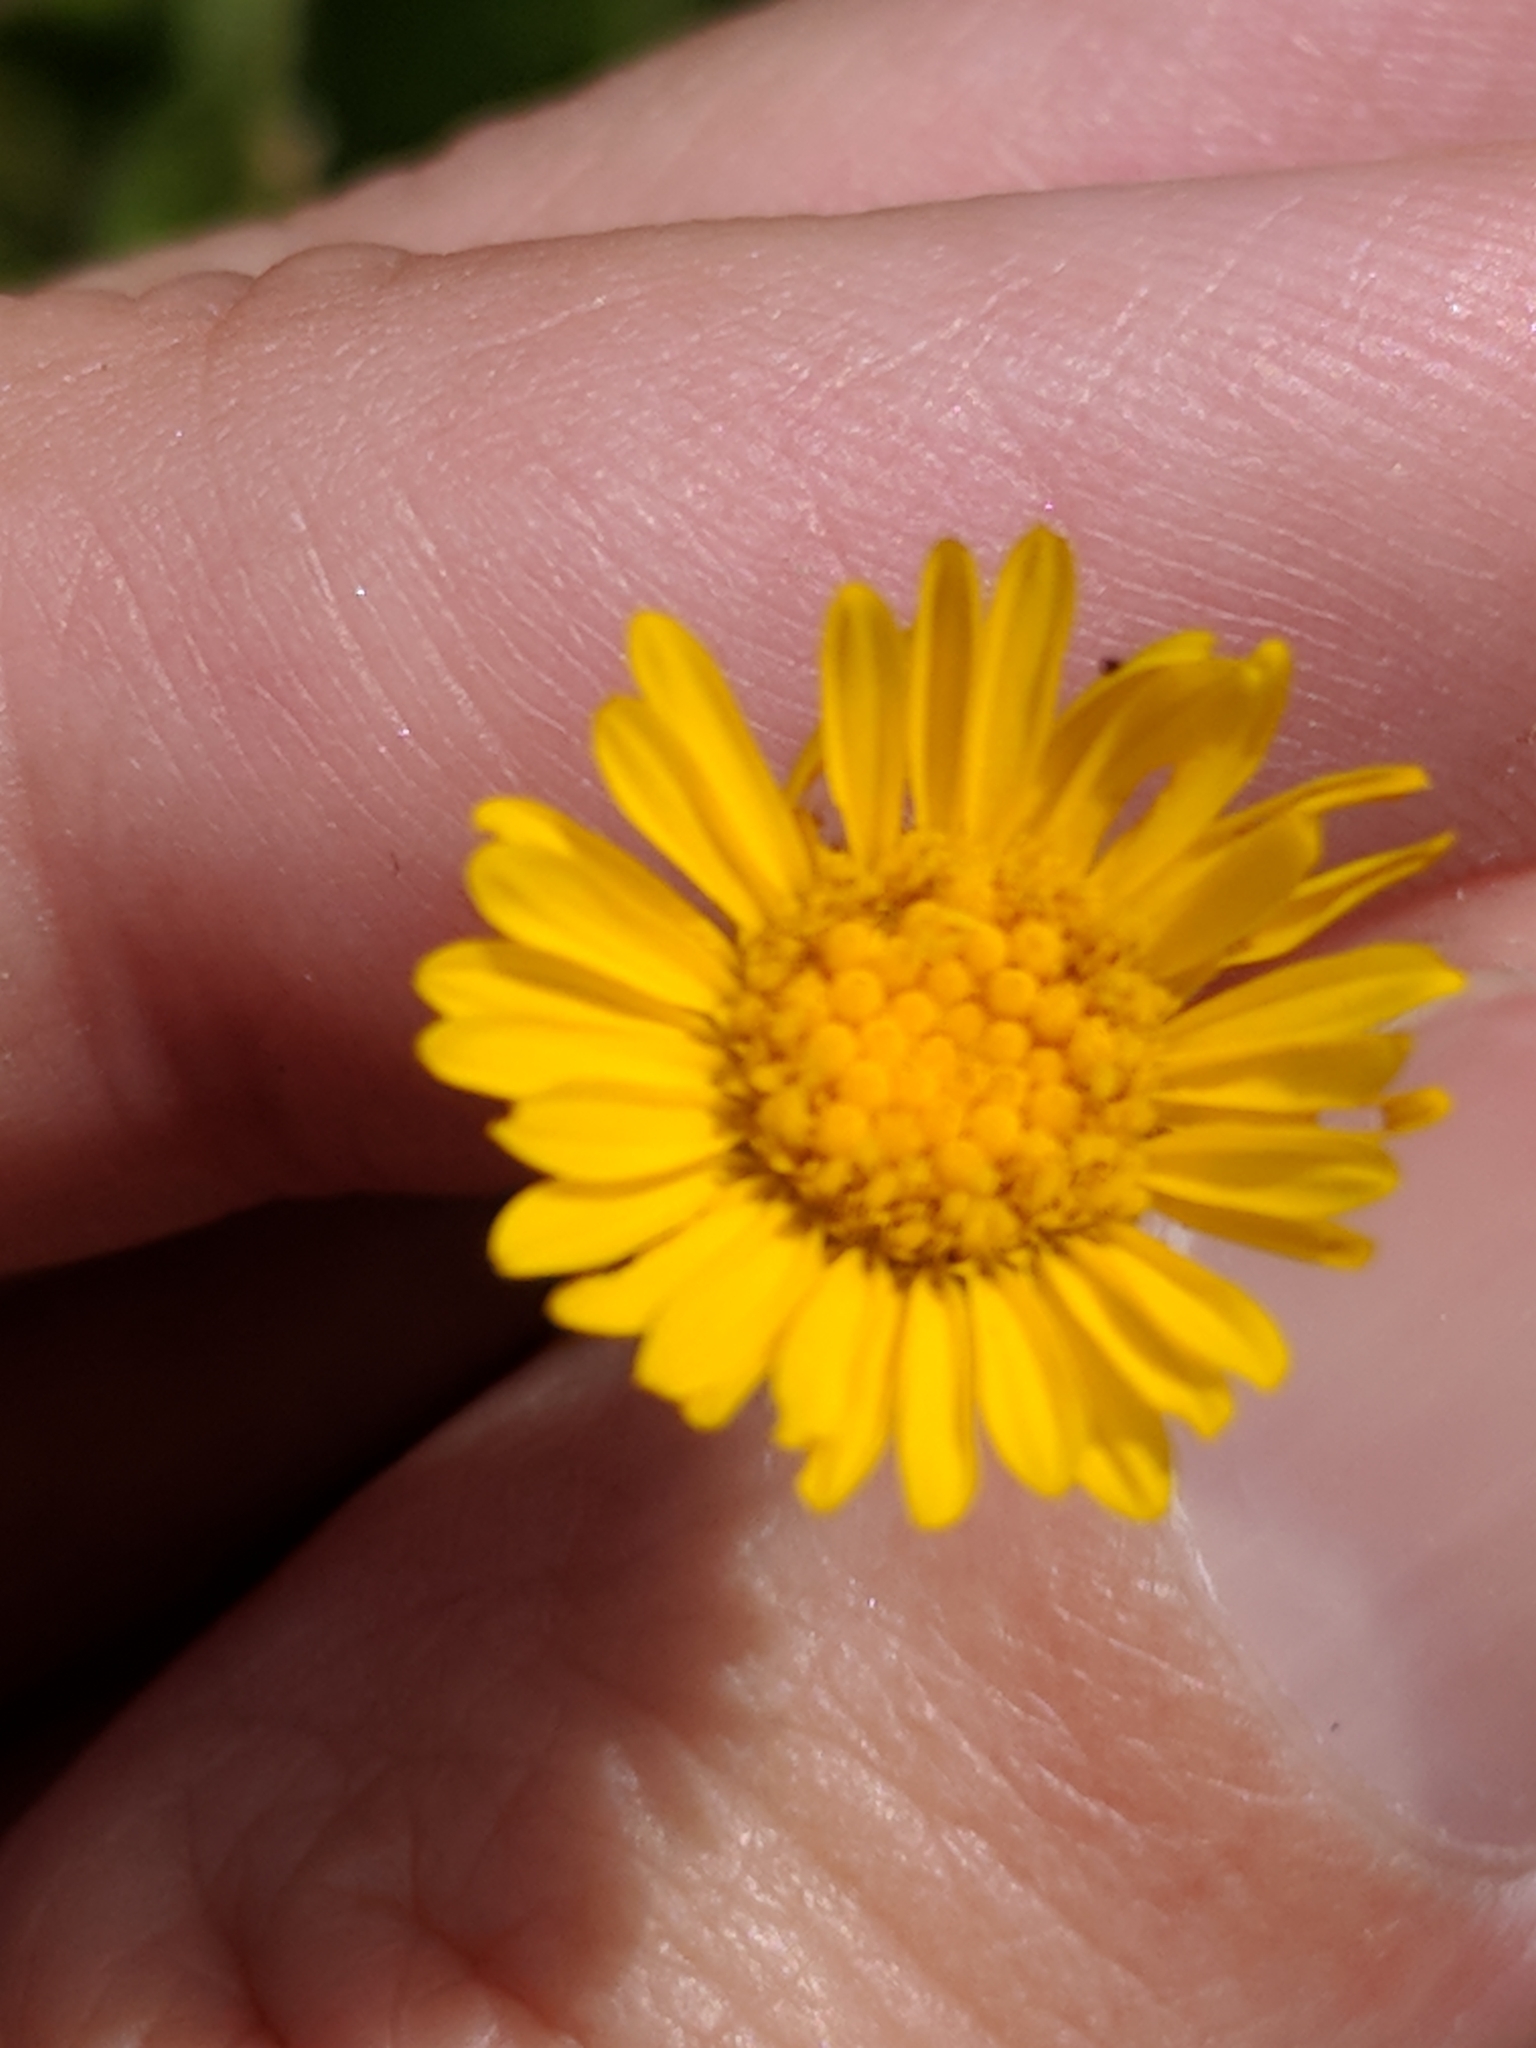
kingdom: Plantae
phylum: Tracheophyta
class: Magnoliopsida
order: Asterales
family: Asteraceae
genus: Heterotheca
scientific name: Heterotheca subaxillaris
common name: Camphorweed
